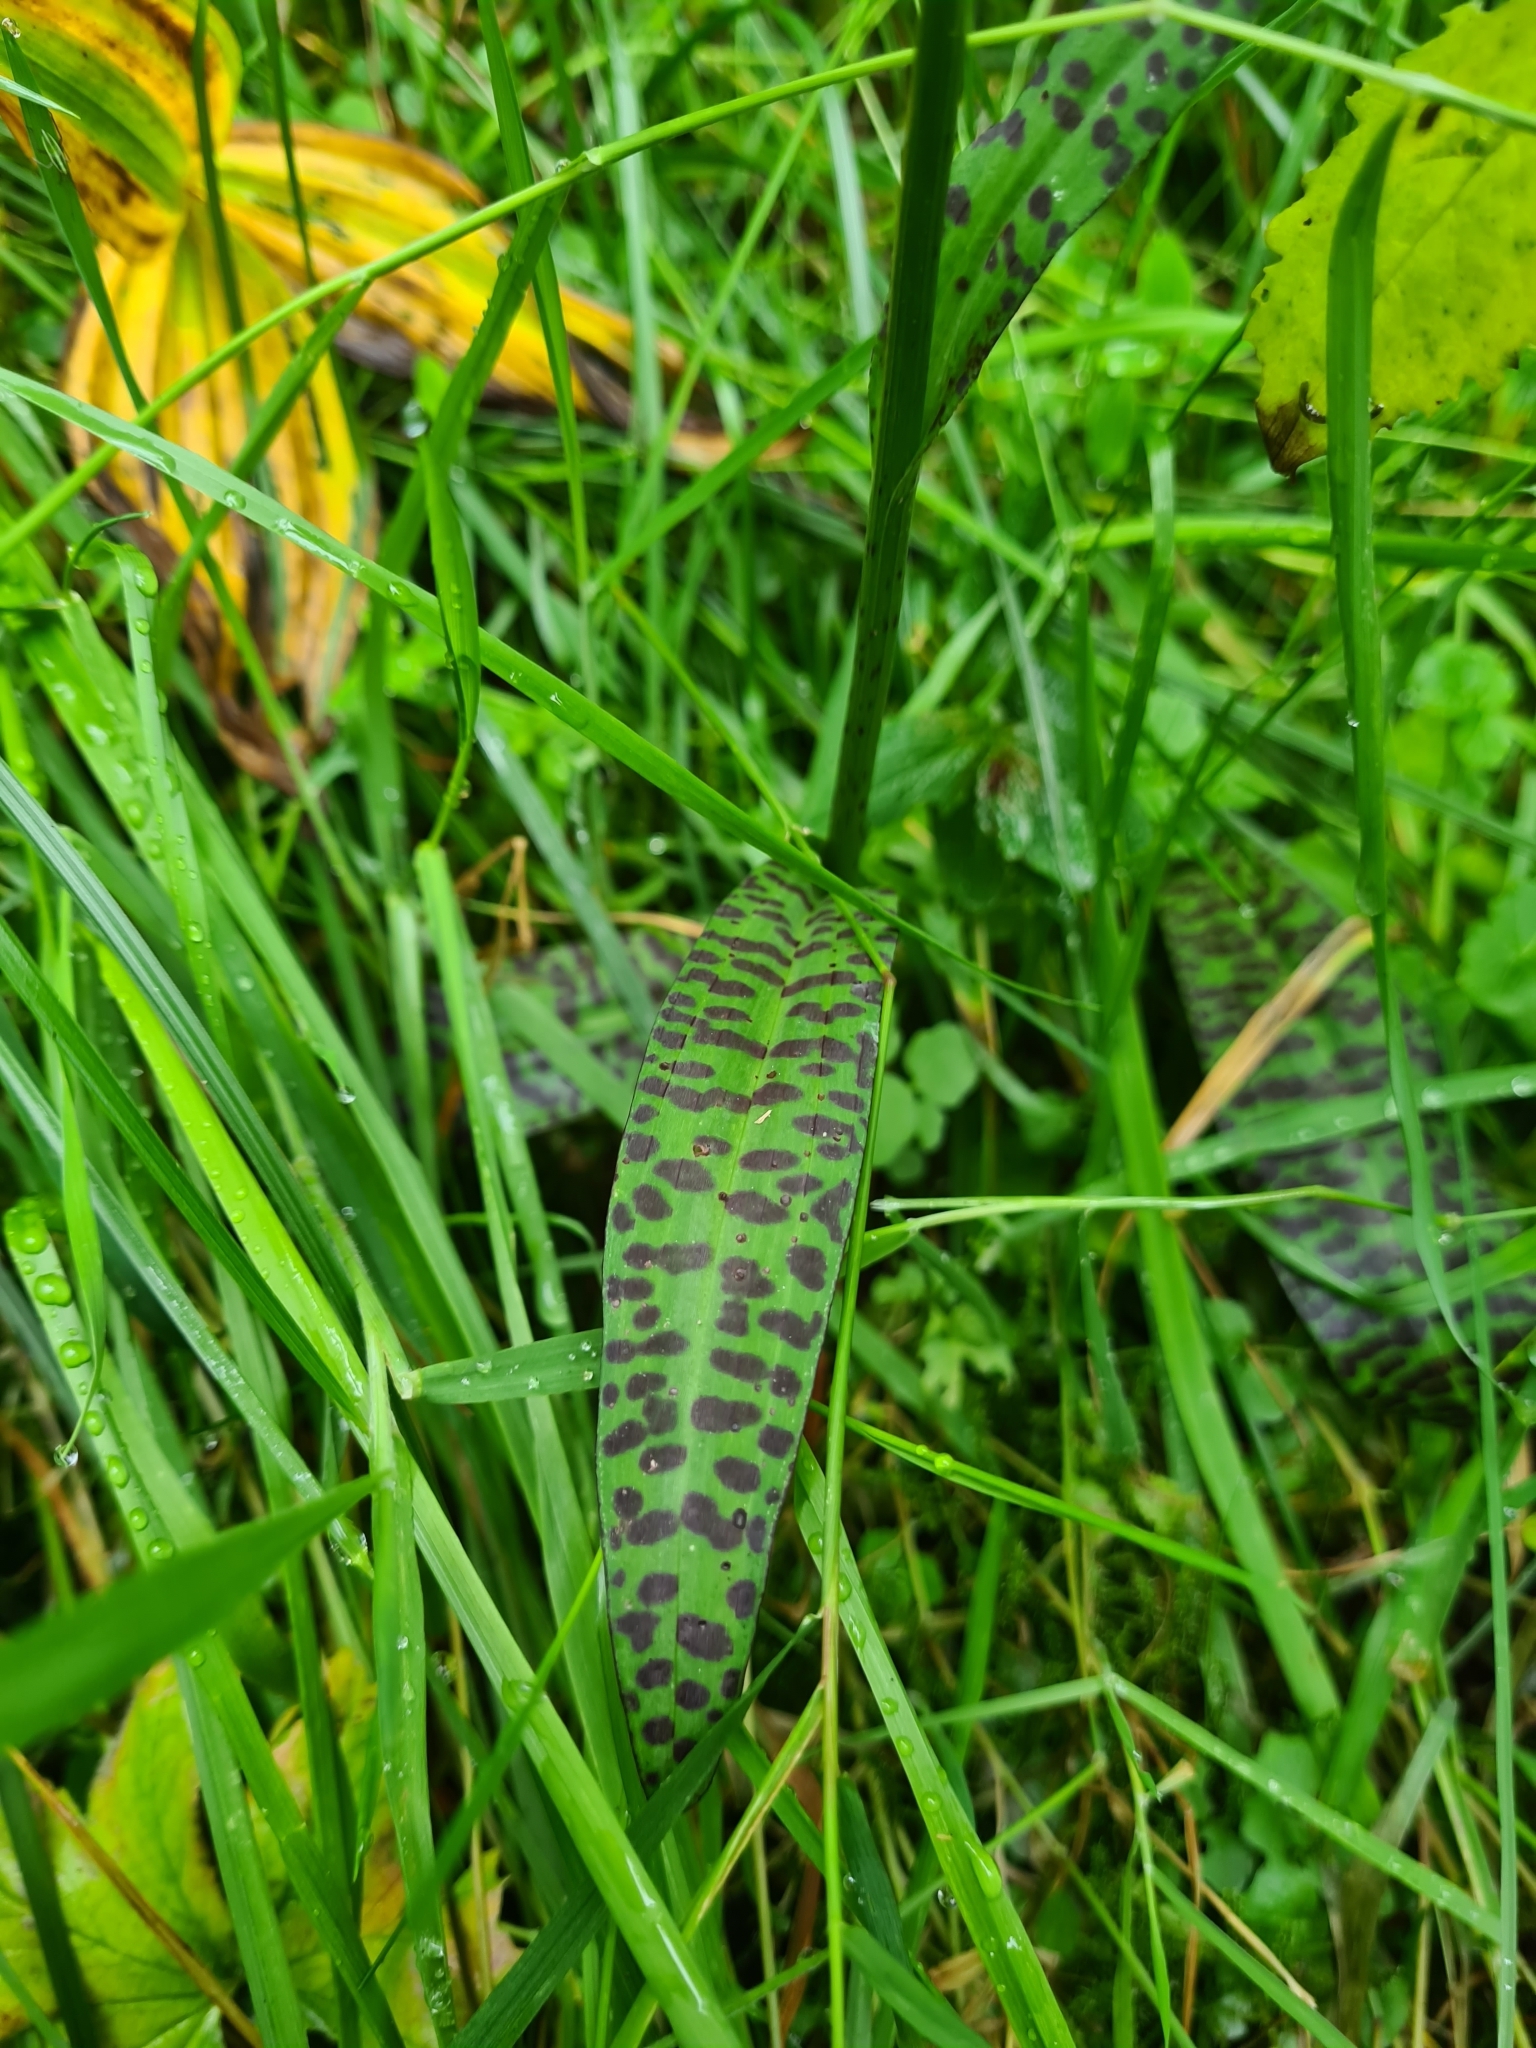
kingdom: Plantae
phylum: Tracheophyta
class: Liliopsida
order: Asparagales
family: Orchidaceae
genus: Dactylorhiza
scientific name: Dactylorhiza maculata
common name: Heath spotted-orchid
